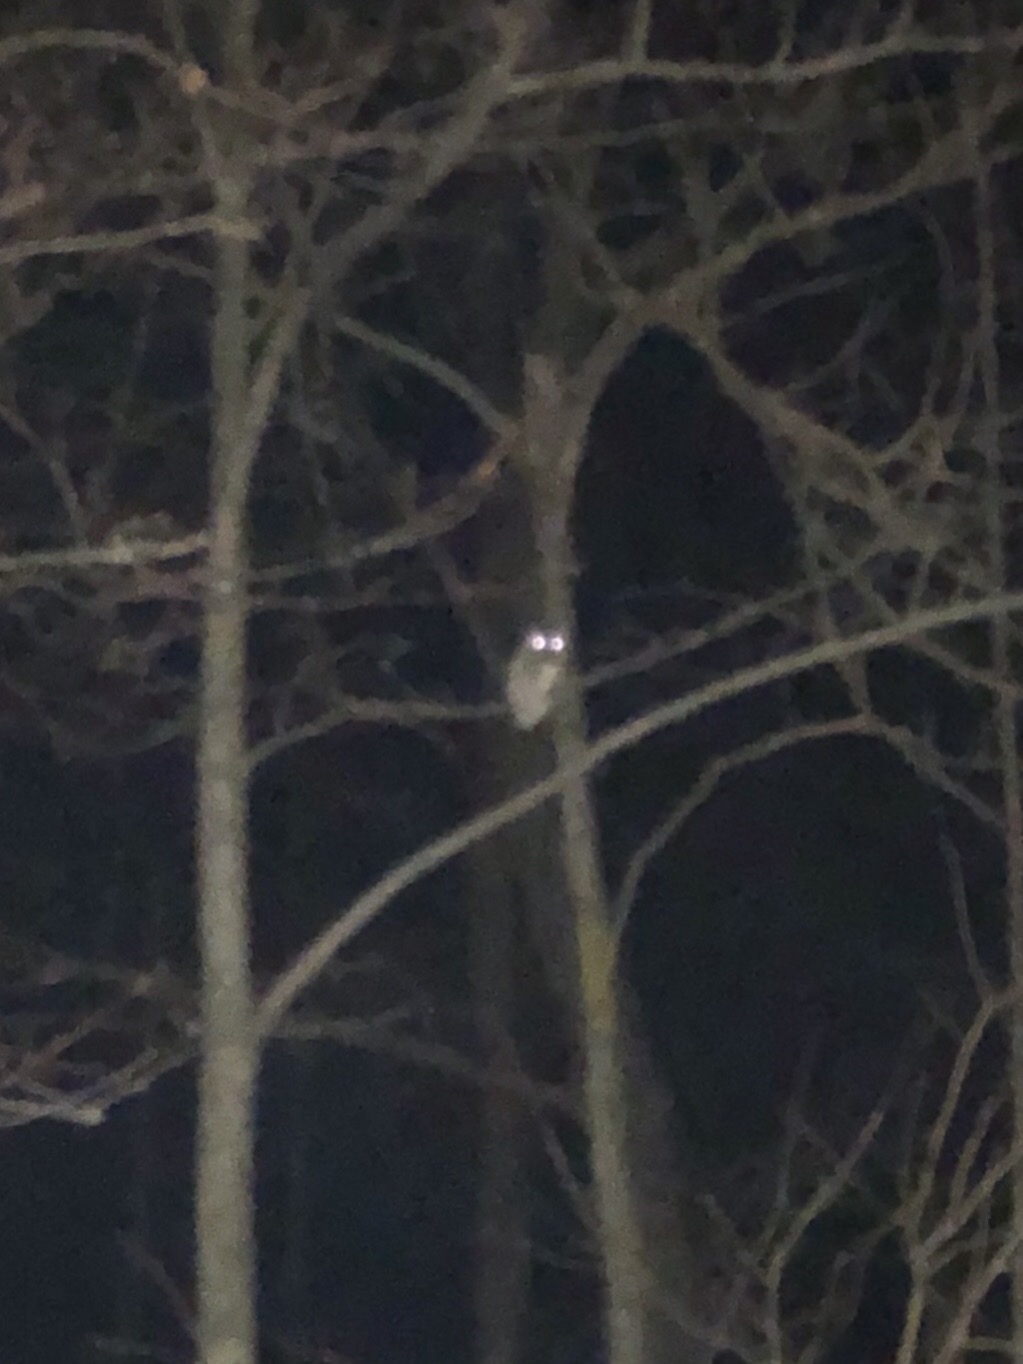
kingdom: Animalia
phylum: Chordata
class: Aves
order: Strigiformes
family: Strigidae
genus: Megascops
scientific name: Megascops asio
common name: Eastern screech-owl
